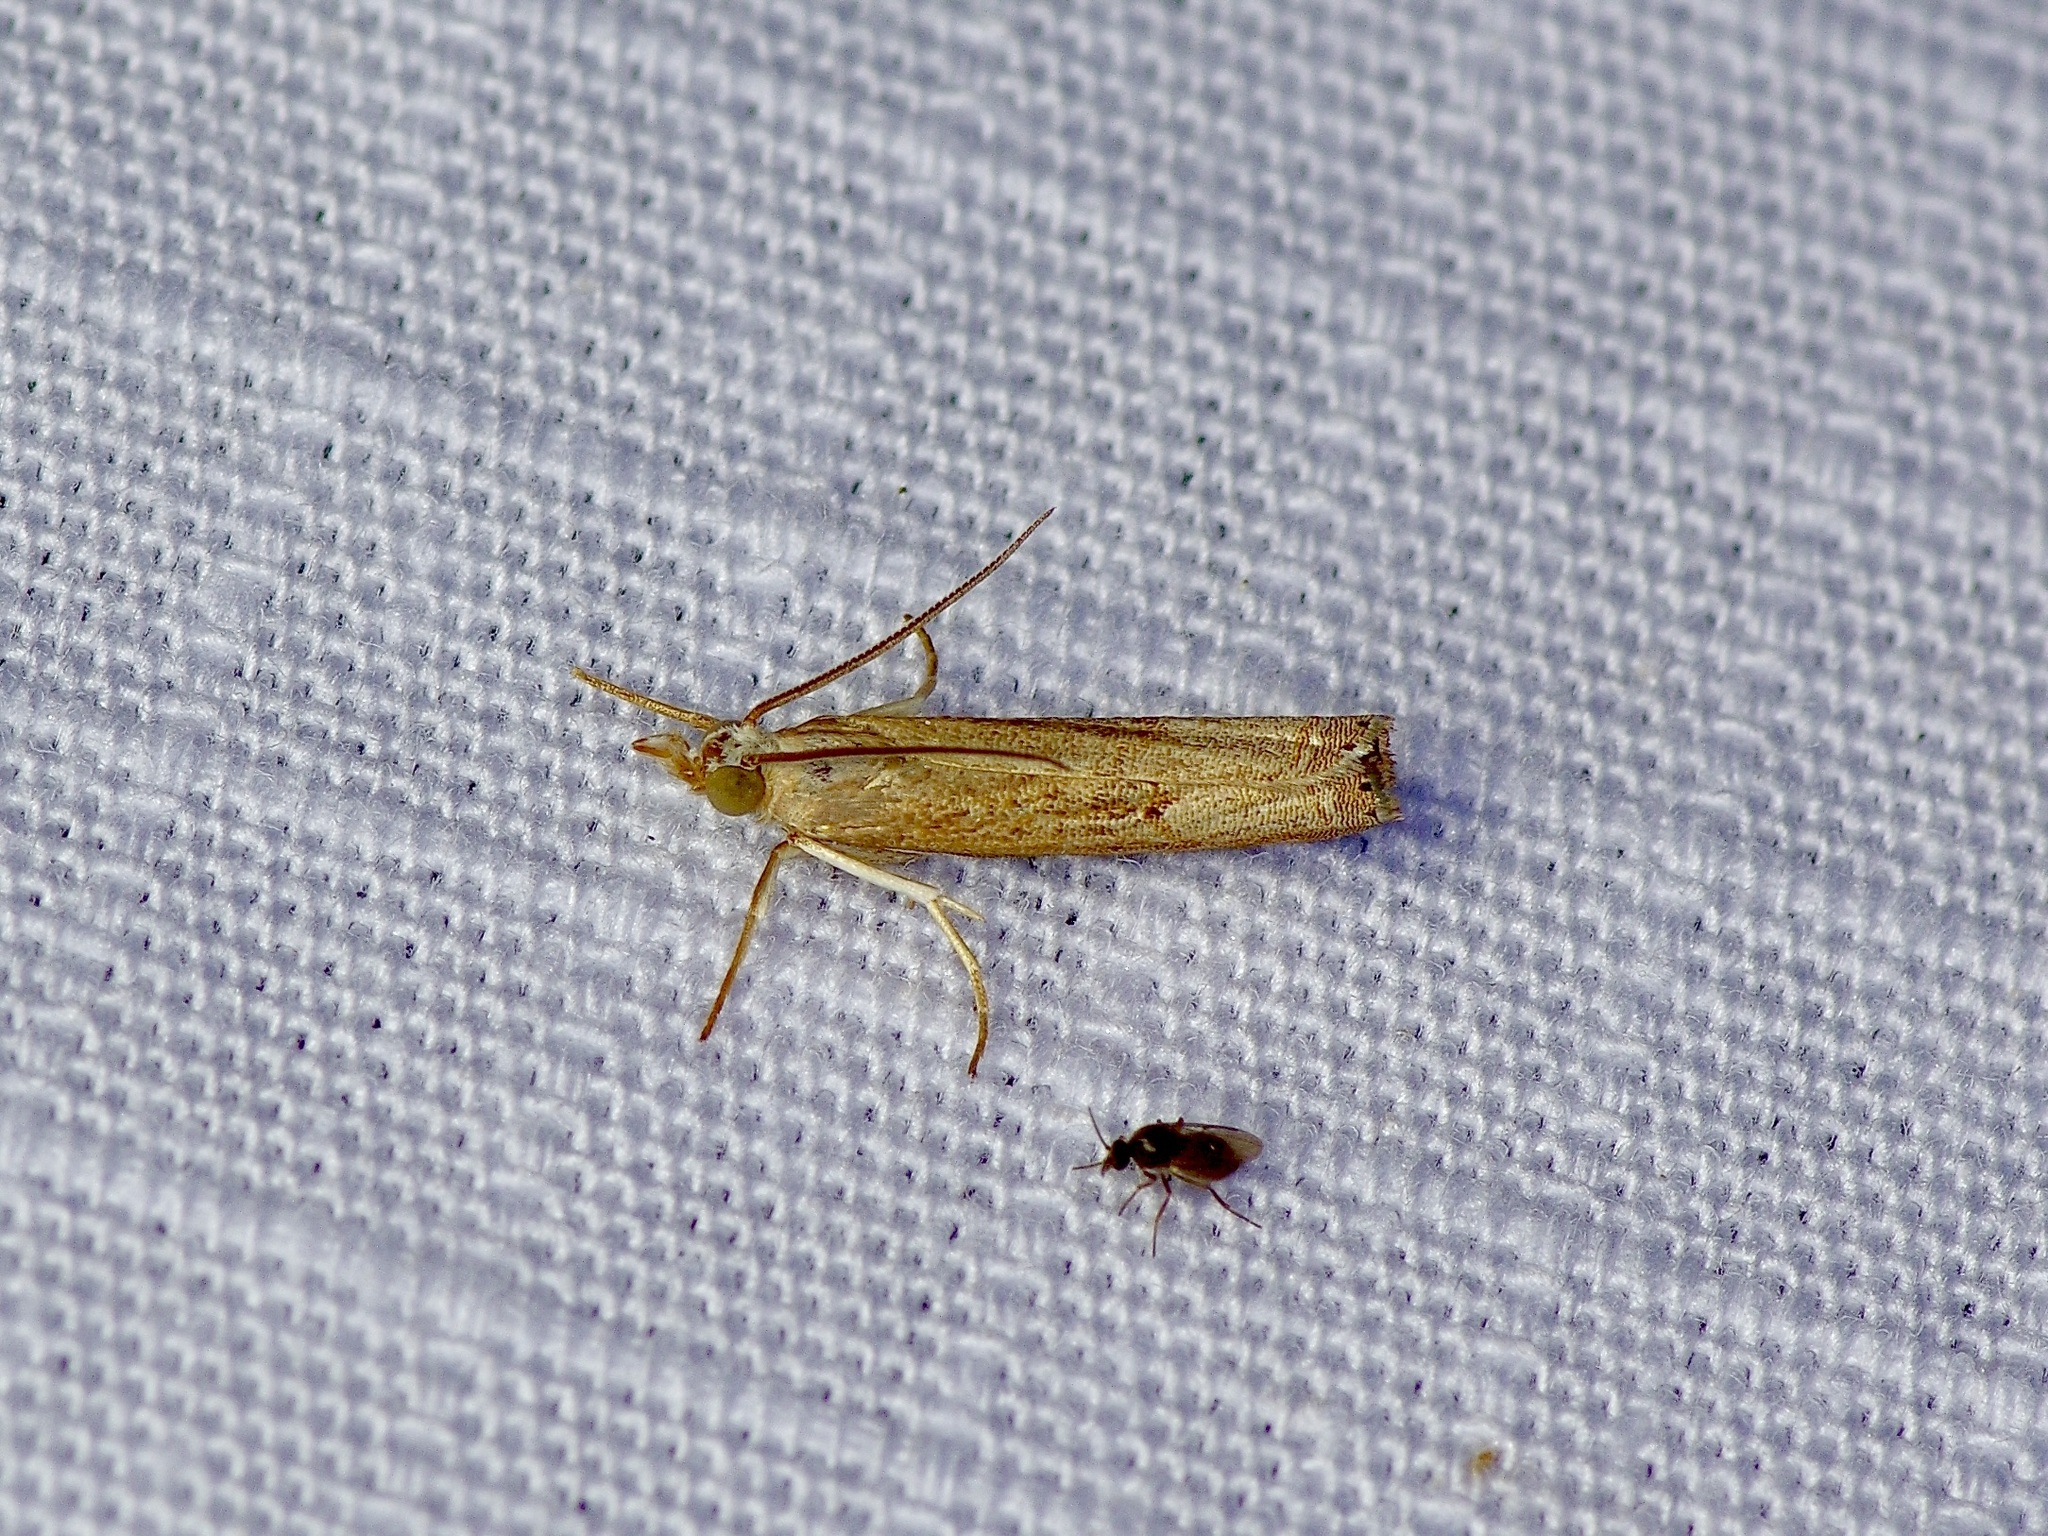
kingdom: Animalia
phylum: Arthropoda
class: Insecta
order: Lepidoptera
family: Crambidae
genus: Parapediasia
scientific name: Parapediasia teterellus
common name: Bluegrass webworm moth
